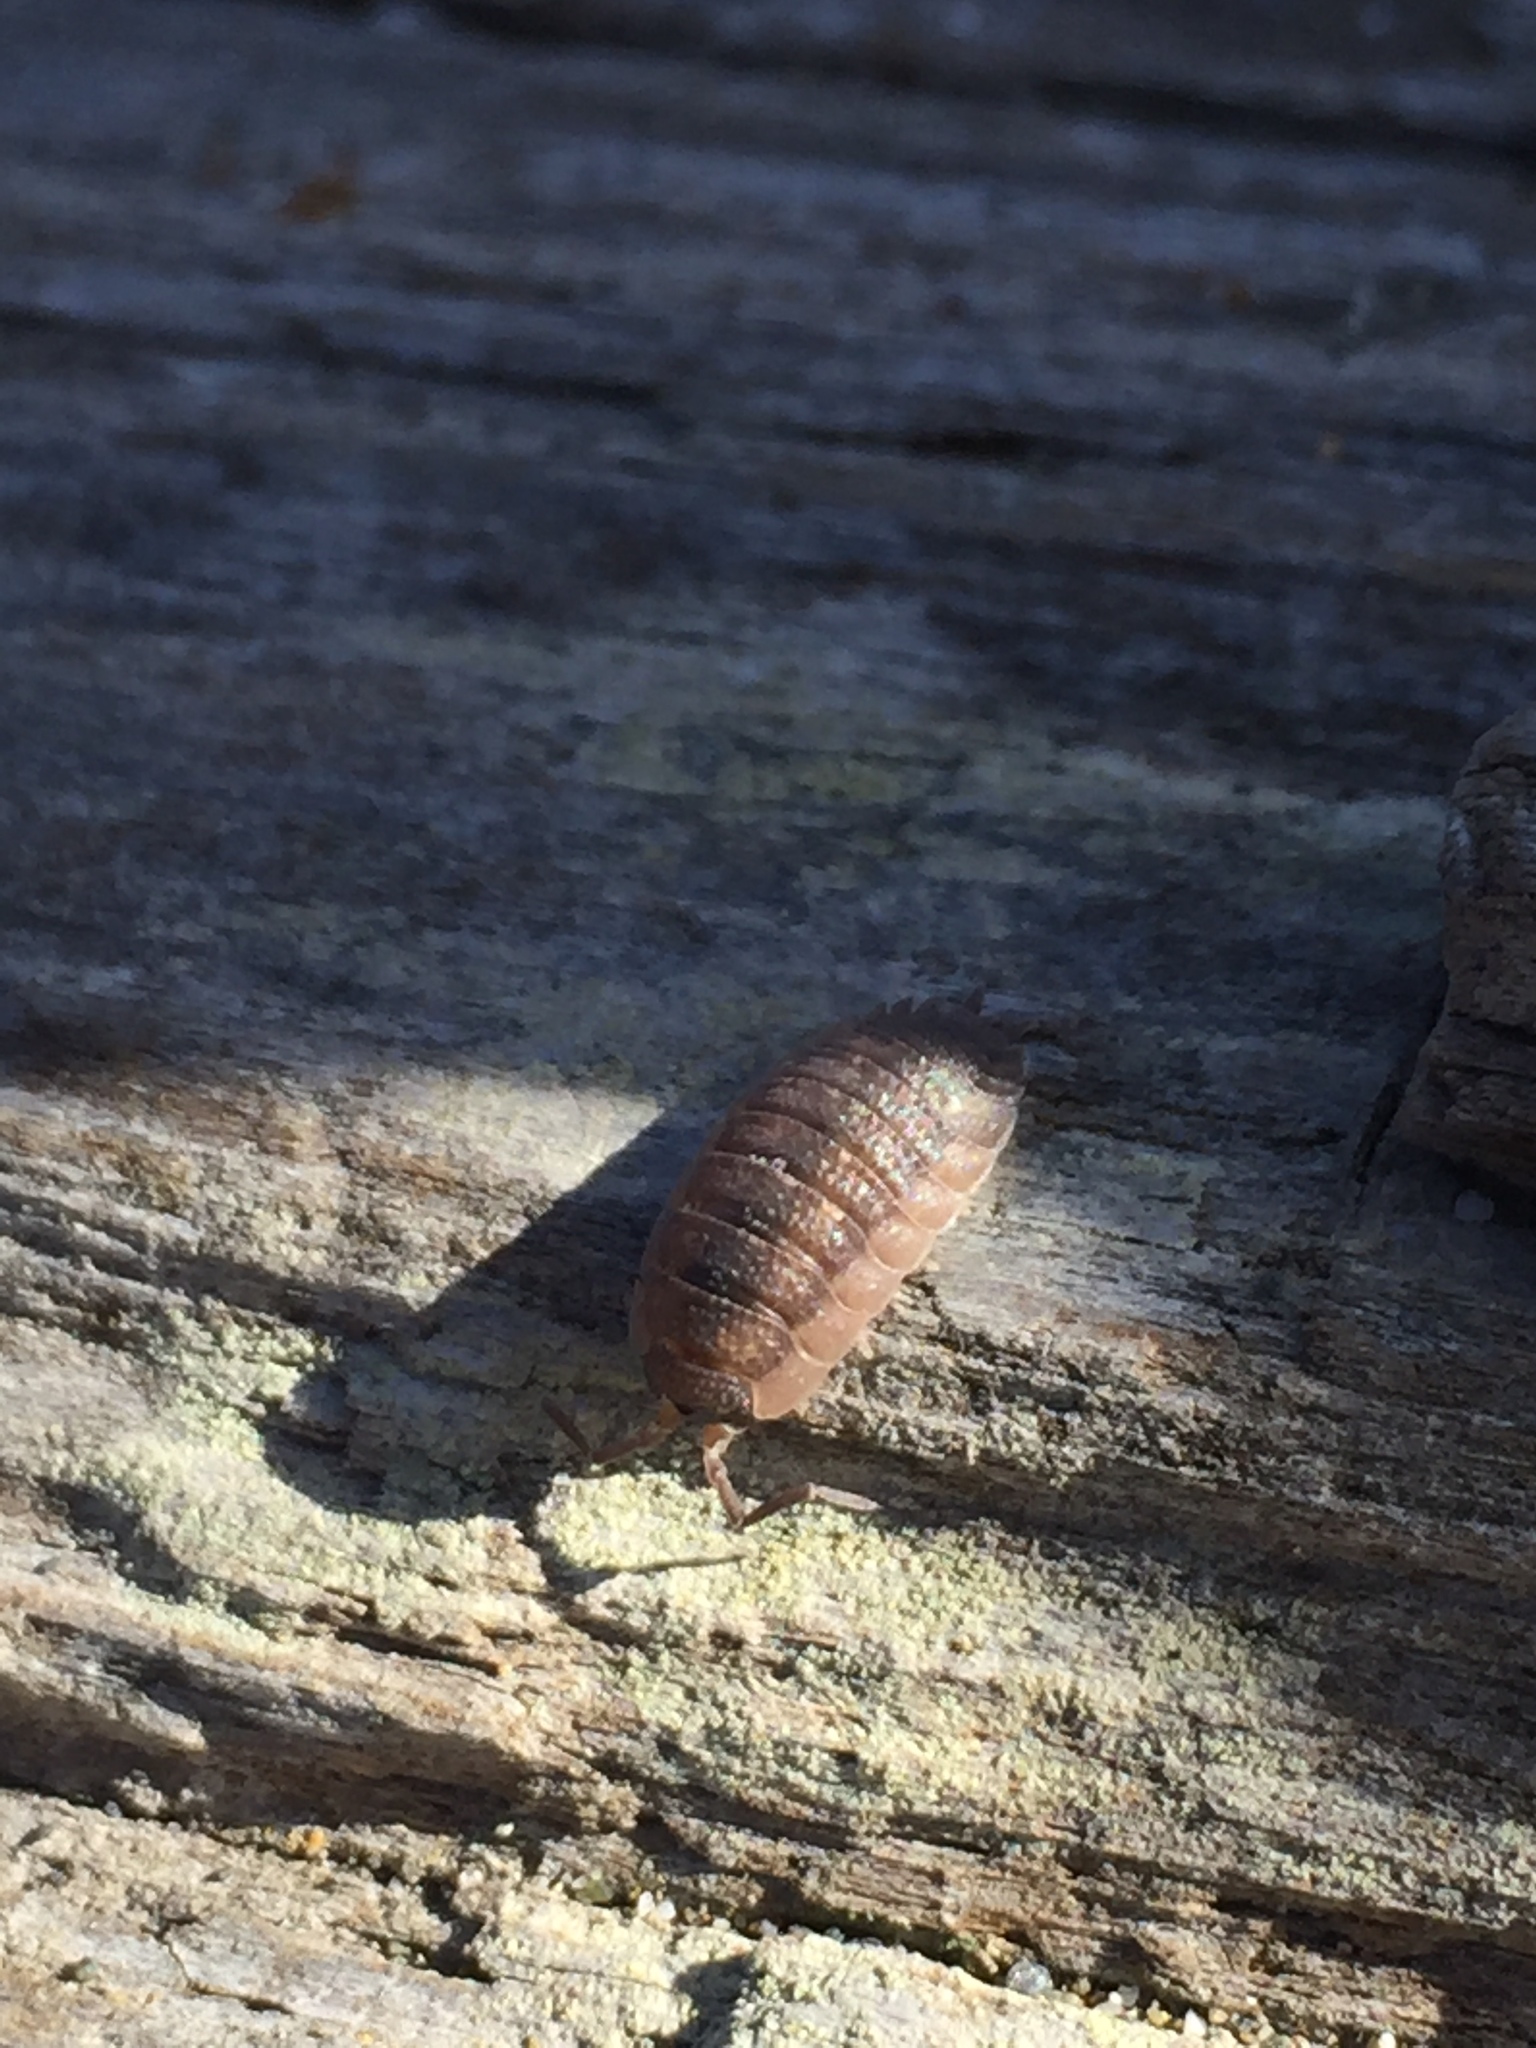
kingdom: Animalia
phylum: Arthropoda
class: Malacostraca
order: Isopoda
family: Porcellionidae
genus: Porcellio
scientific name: Porcellio scaber
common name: Common rough woodlouse
